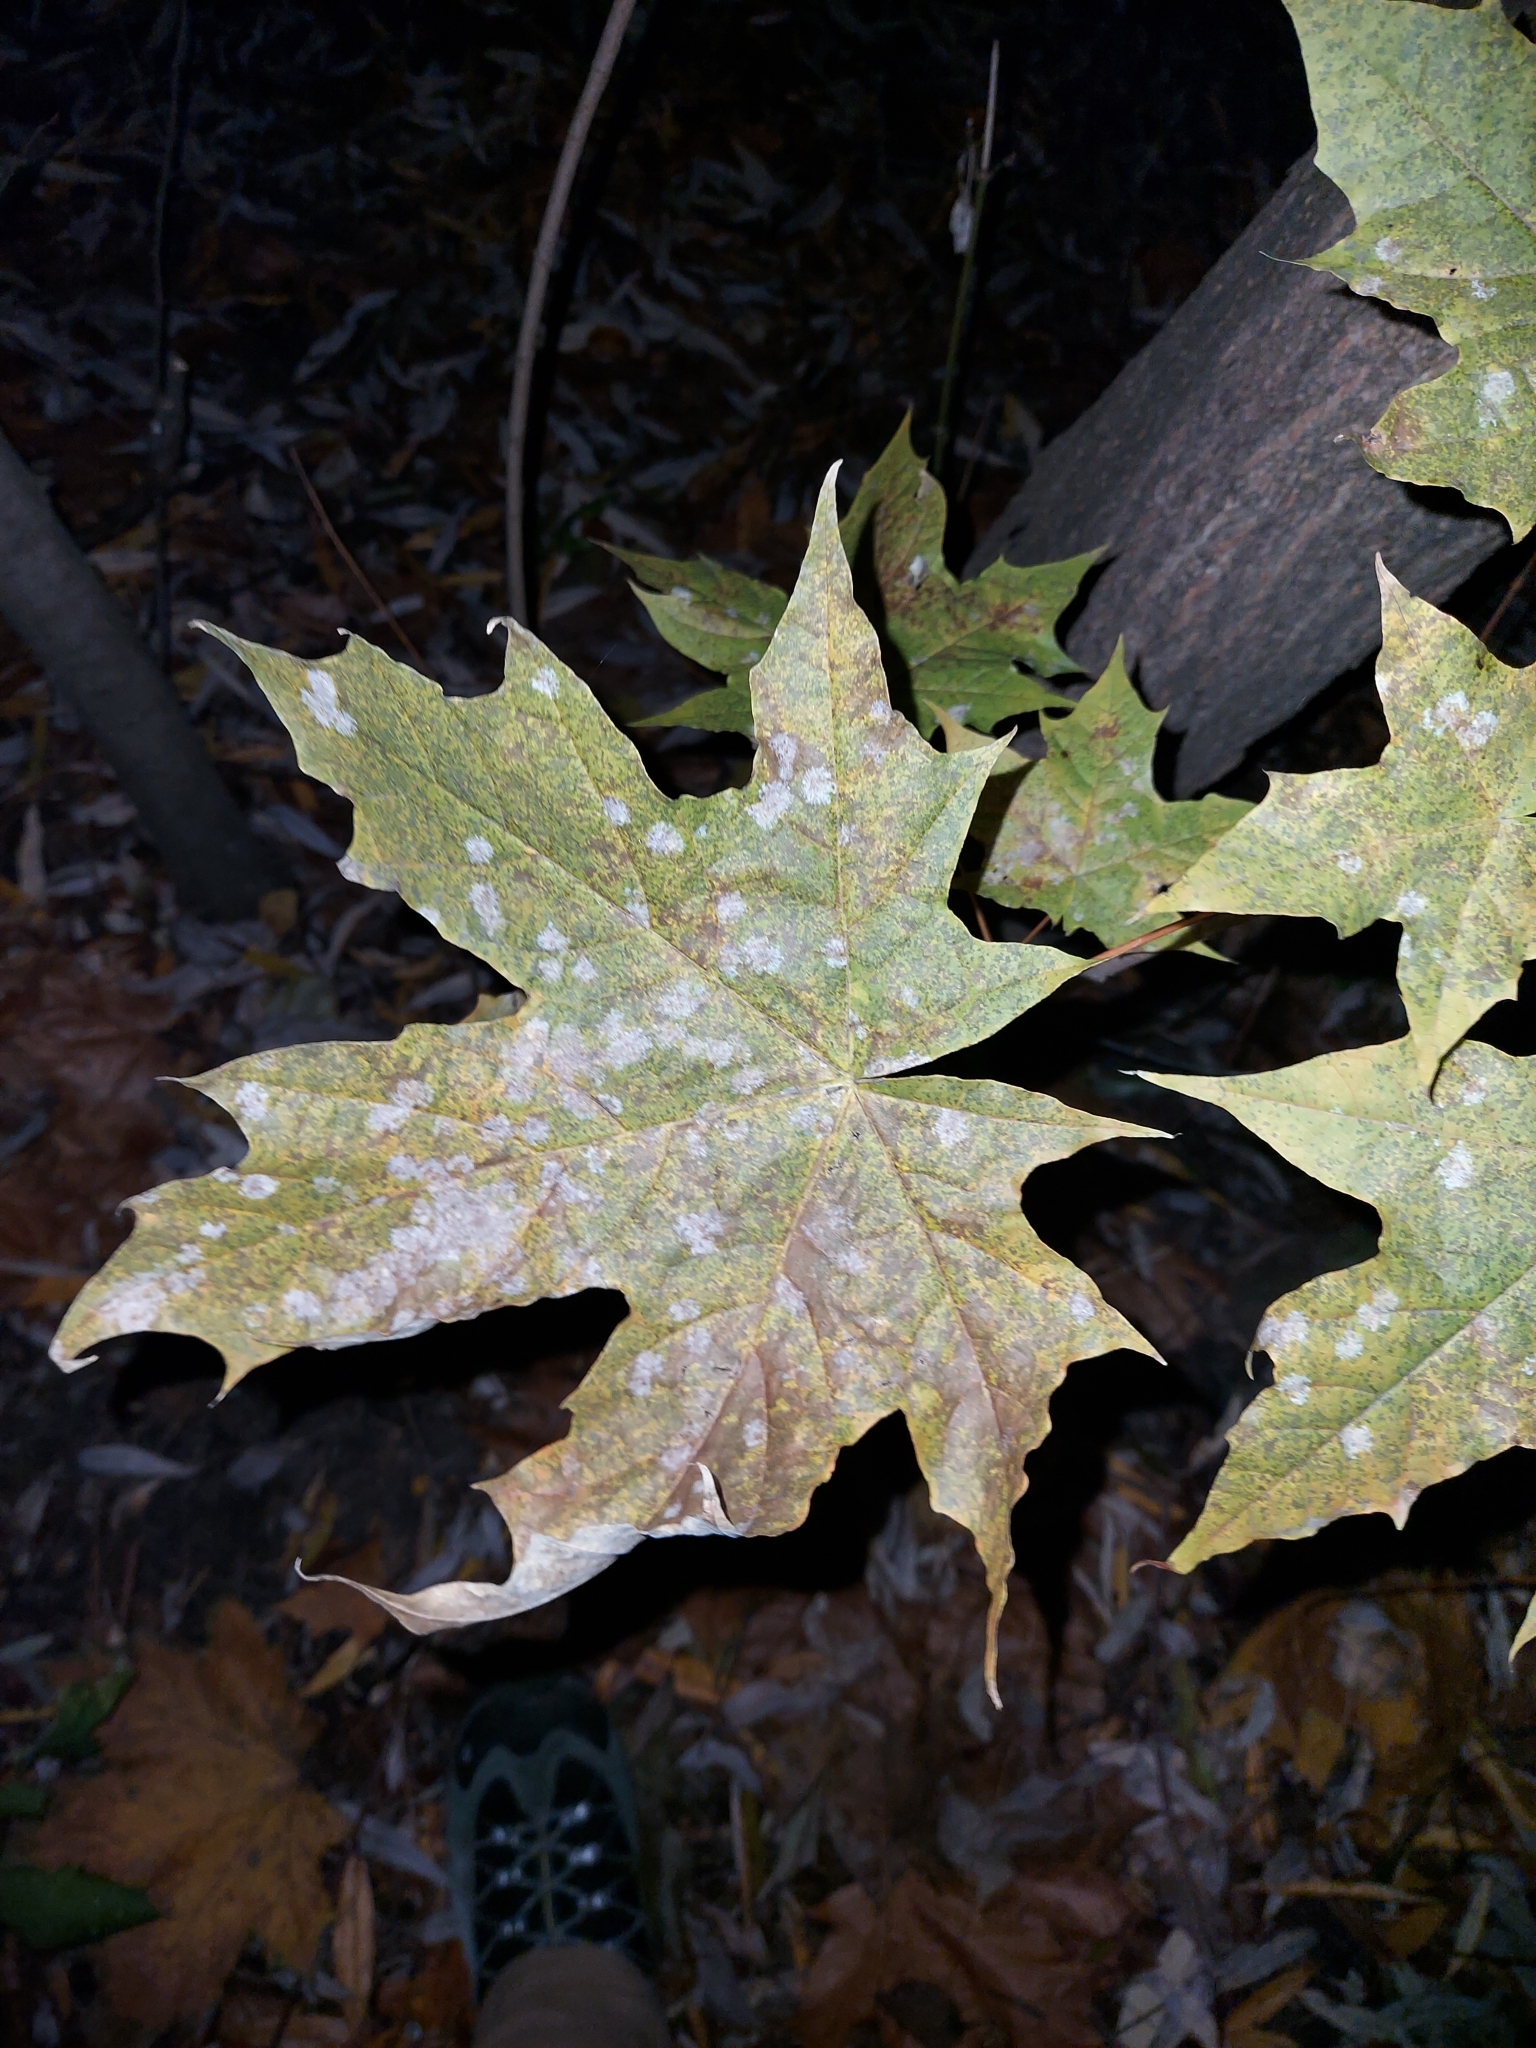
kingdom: Fungi
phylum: Ascomycota
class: Leotiomycetes
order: Helotiales
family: Erysiphaceae
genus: Sawadaea
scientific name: Sawadaea tulasnei
